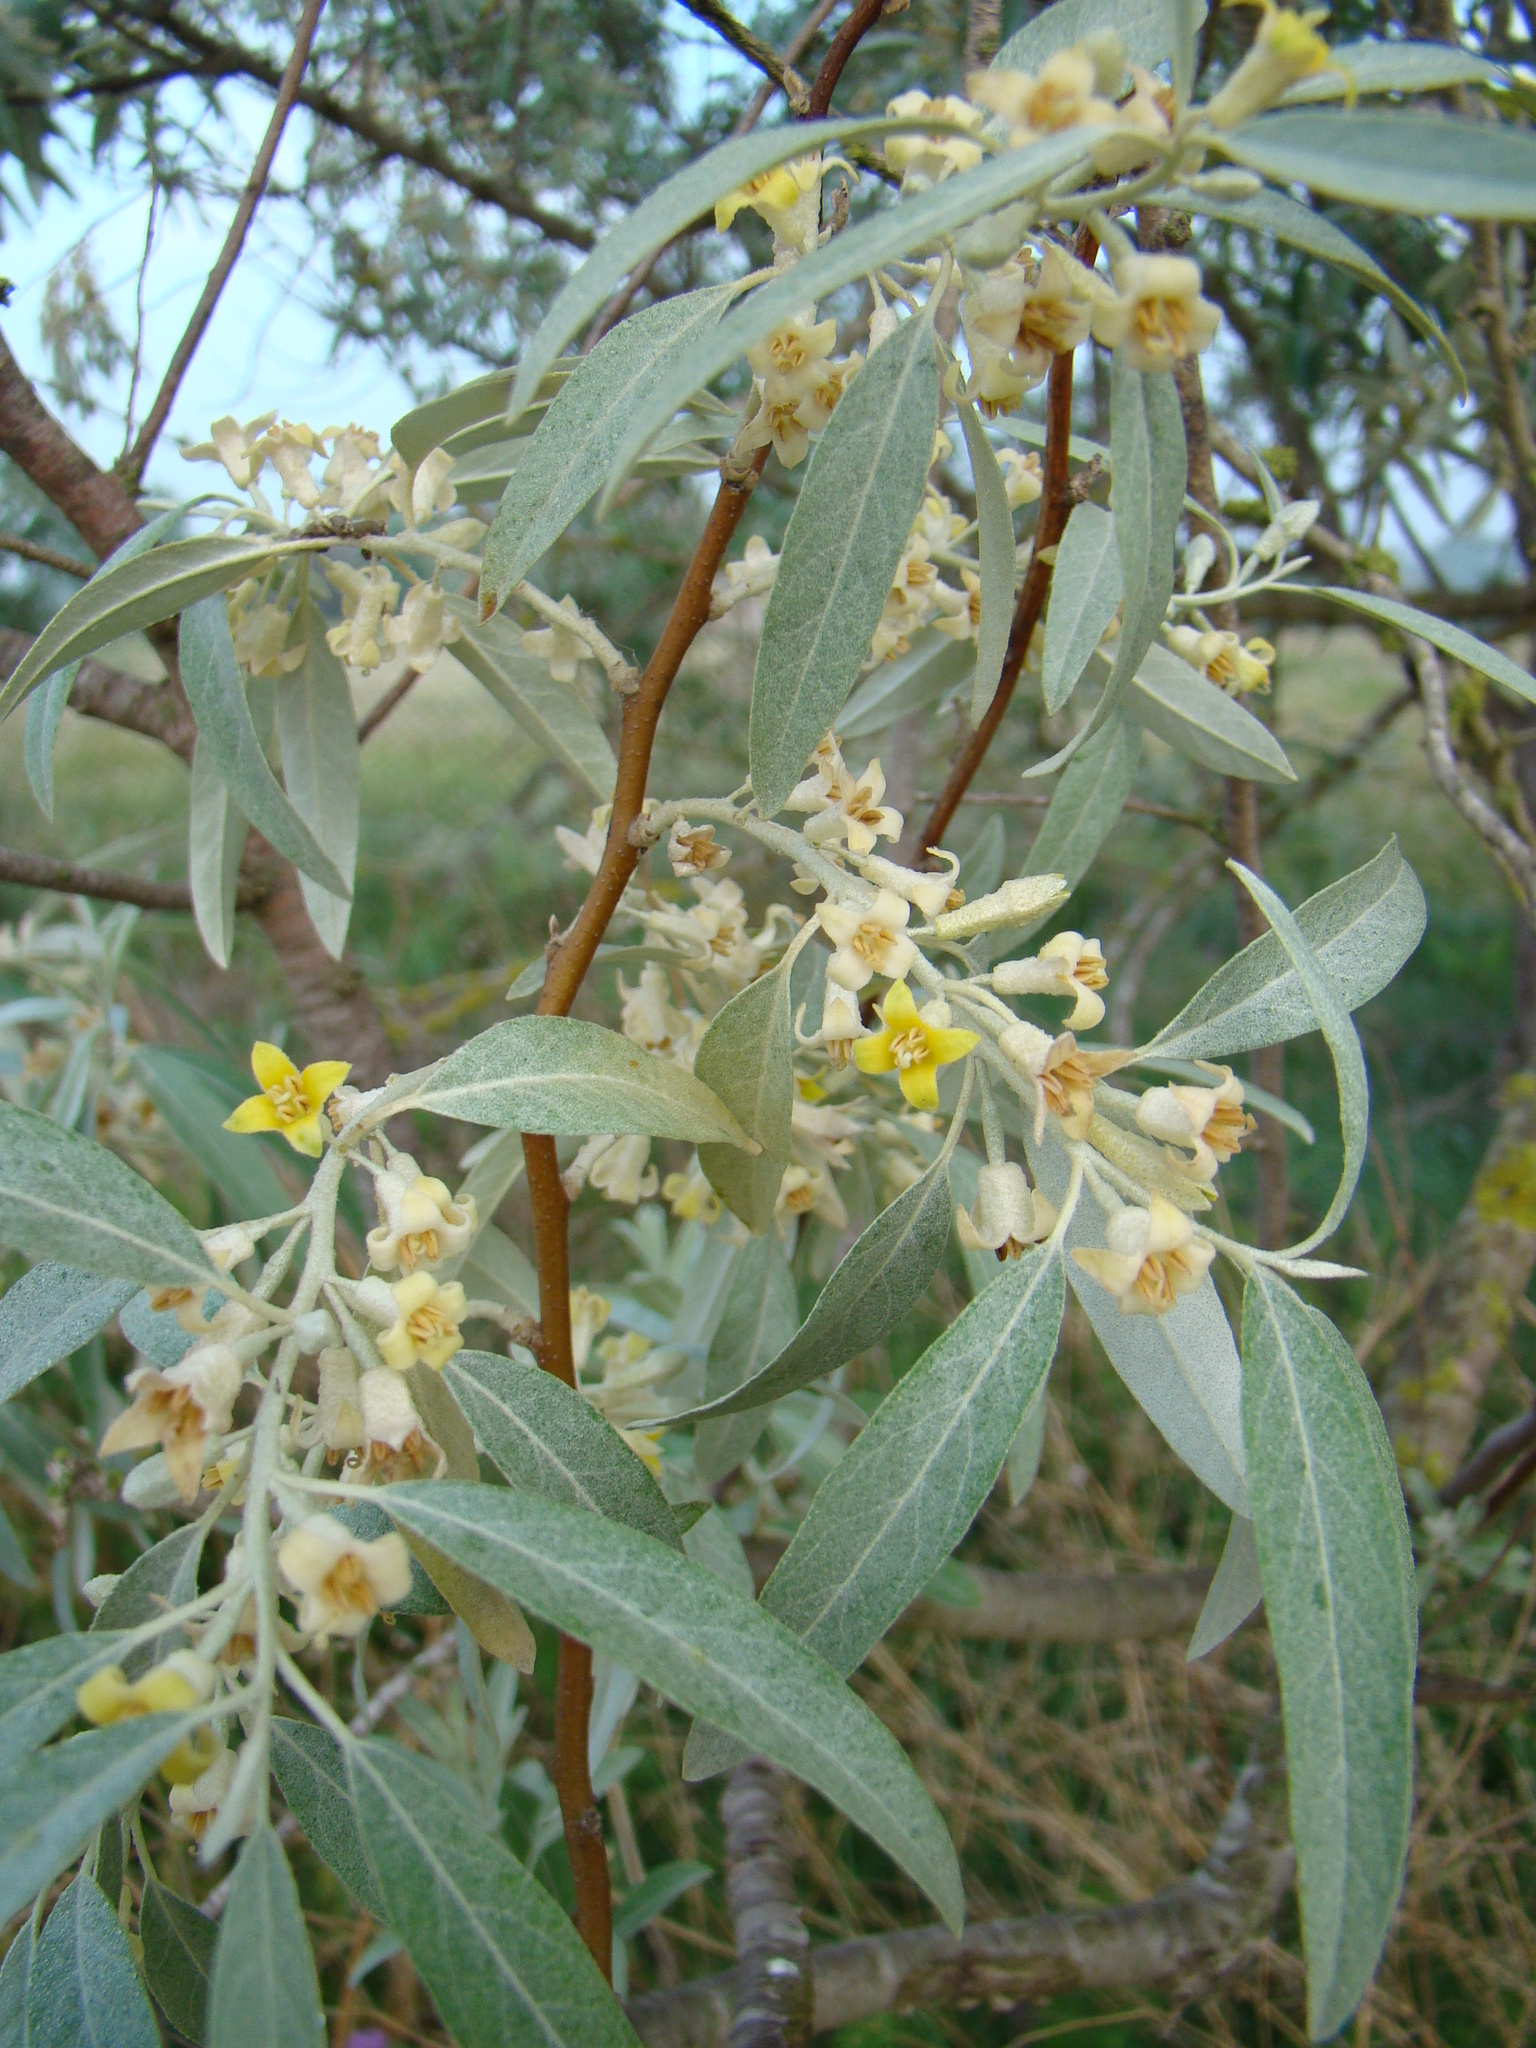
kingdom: Plantae
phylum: Tracheophyta
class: Magnoliopsida
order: Rosales
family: Elaeagnaceae
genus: Elaeagnus
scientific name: Elaeagnus angustifolia
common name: Russian olive
